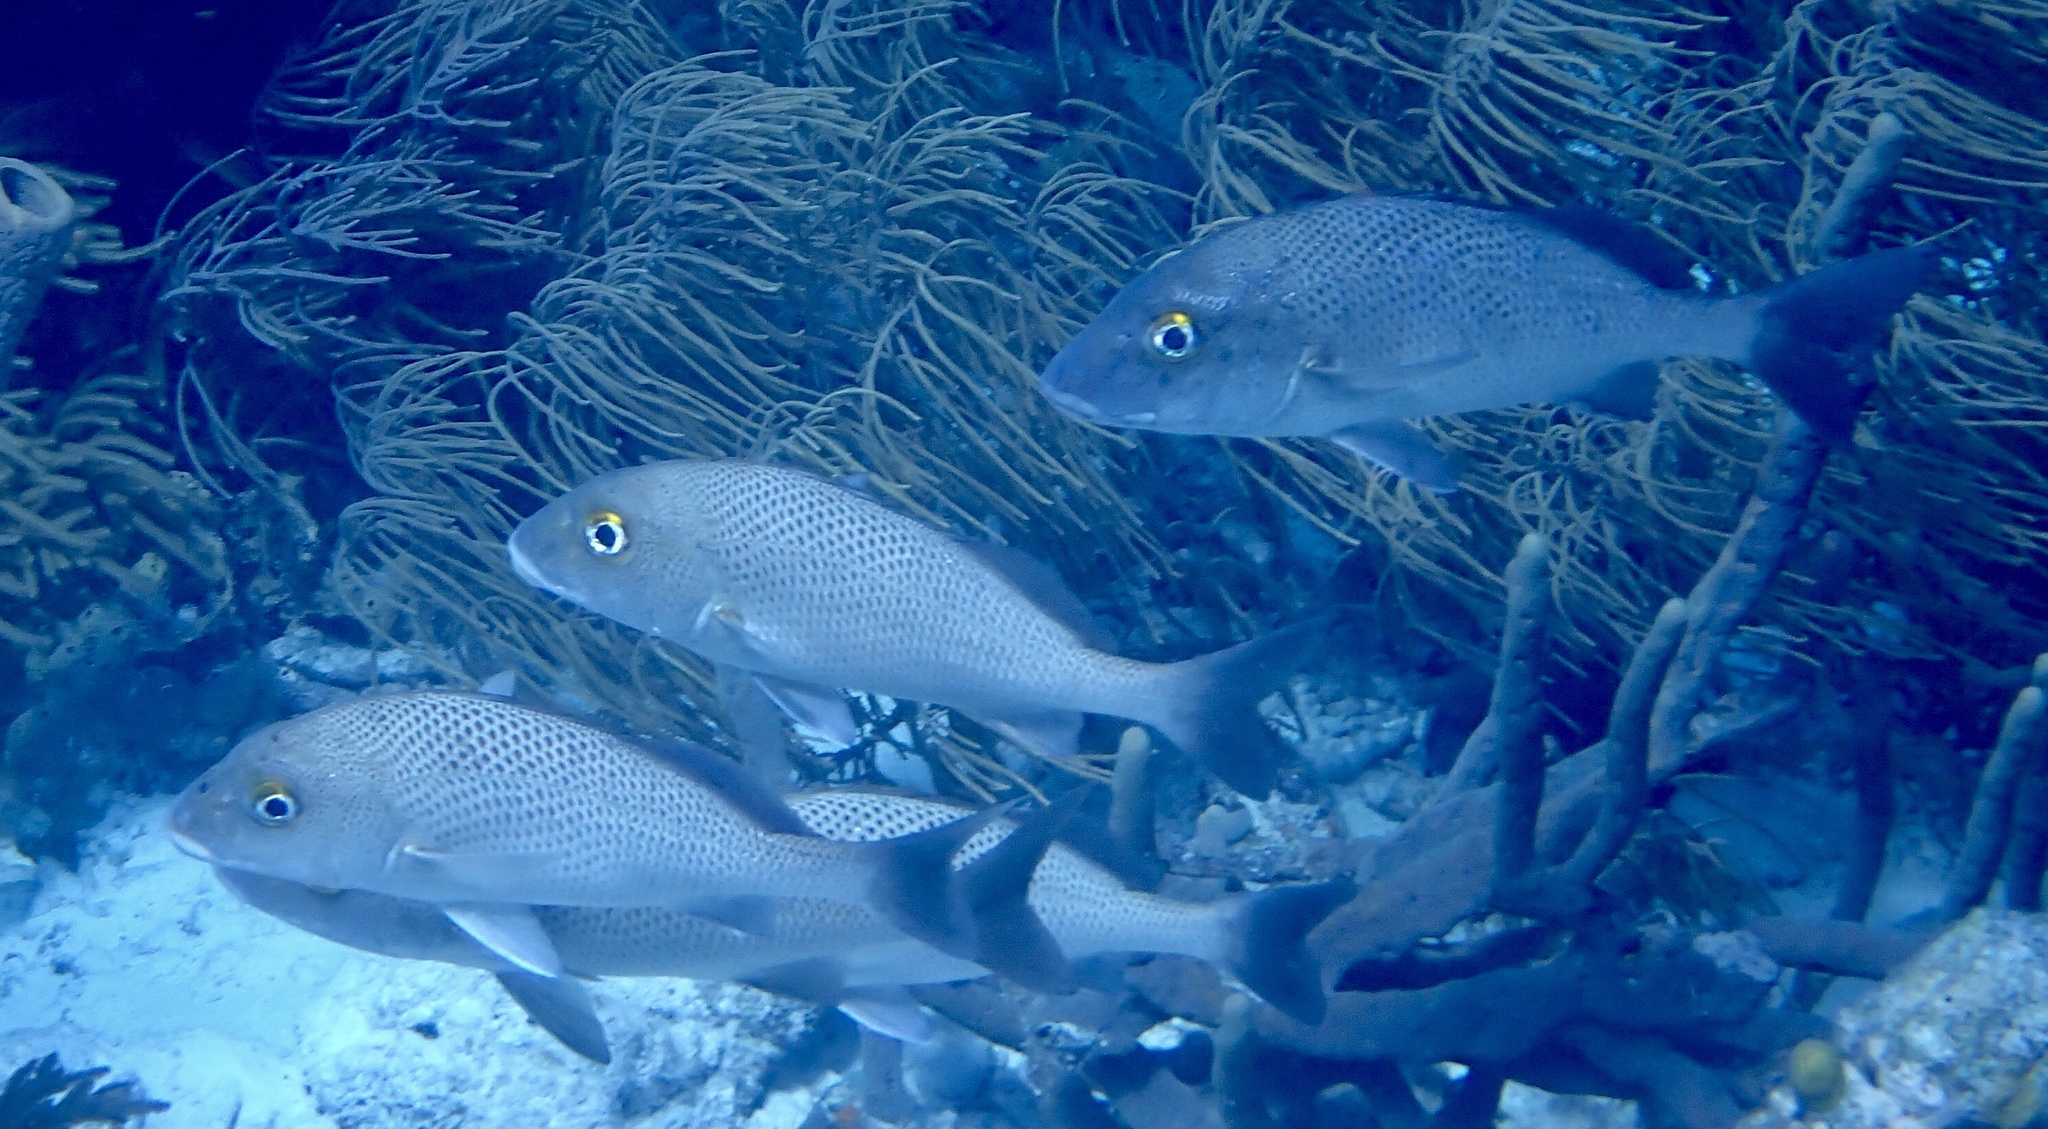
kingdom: Animalia
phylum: Chordata
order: Perciformes
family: Haemulidae
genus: Haemulon
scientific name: Haemulon parra
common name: Sailor's choice
